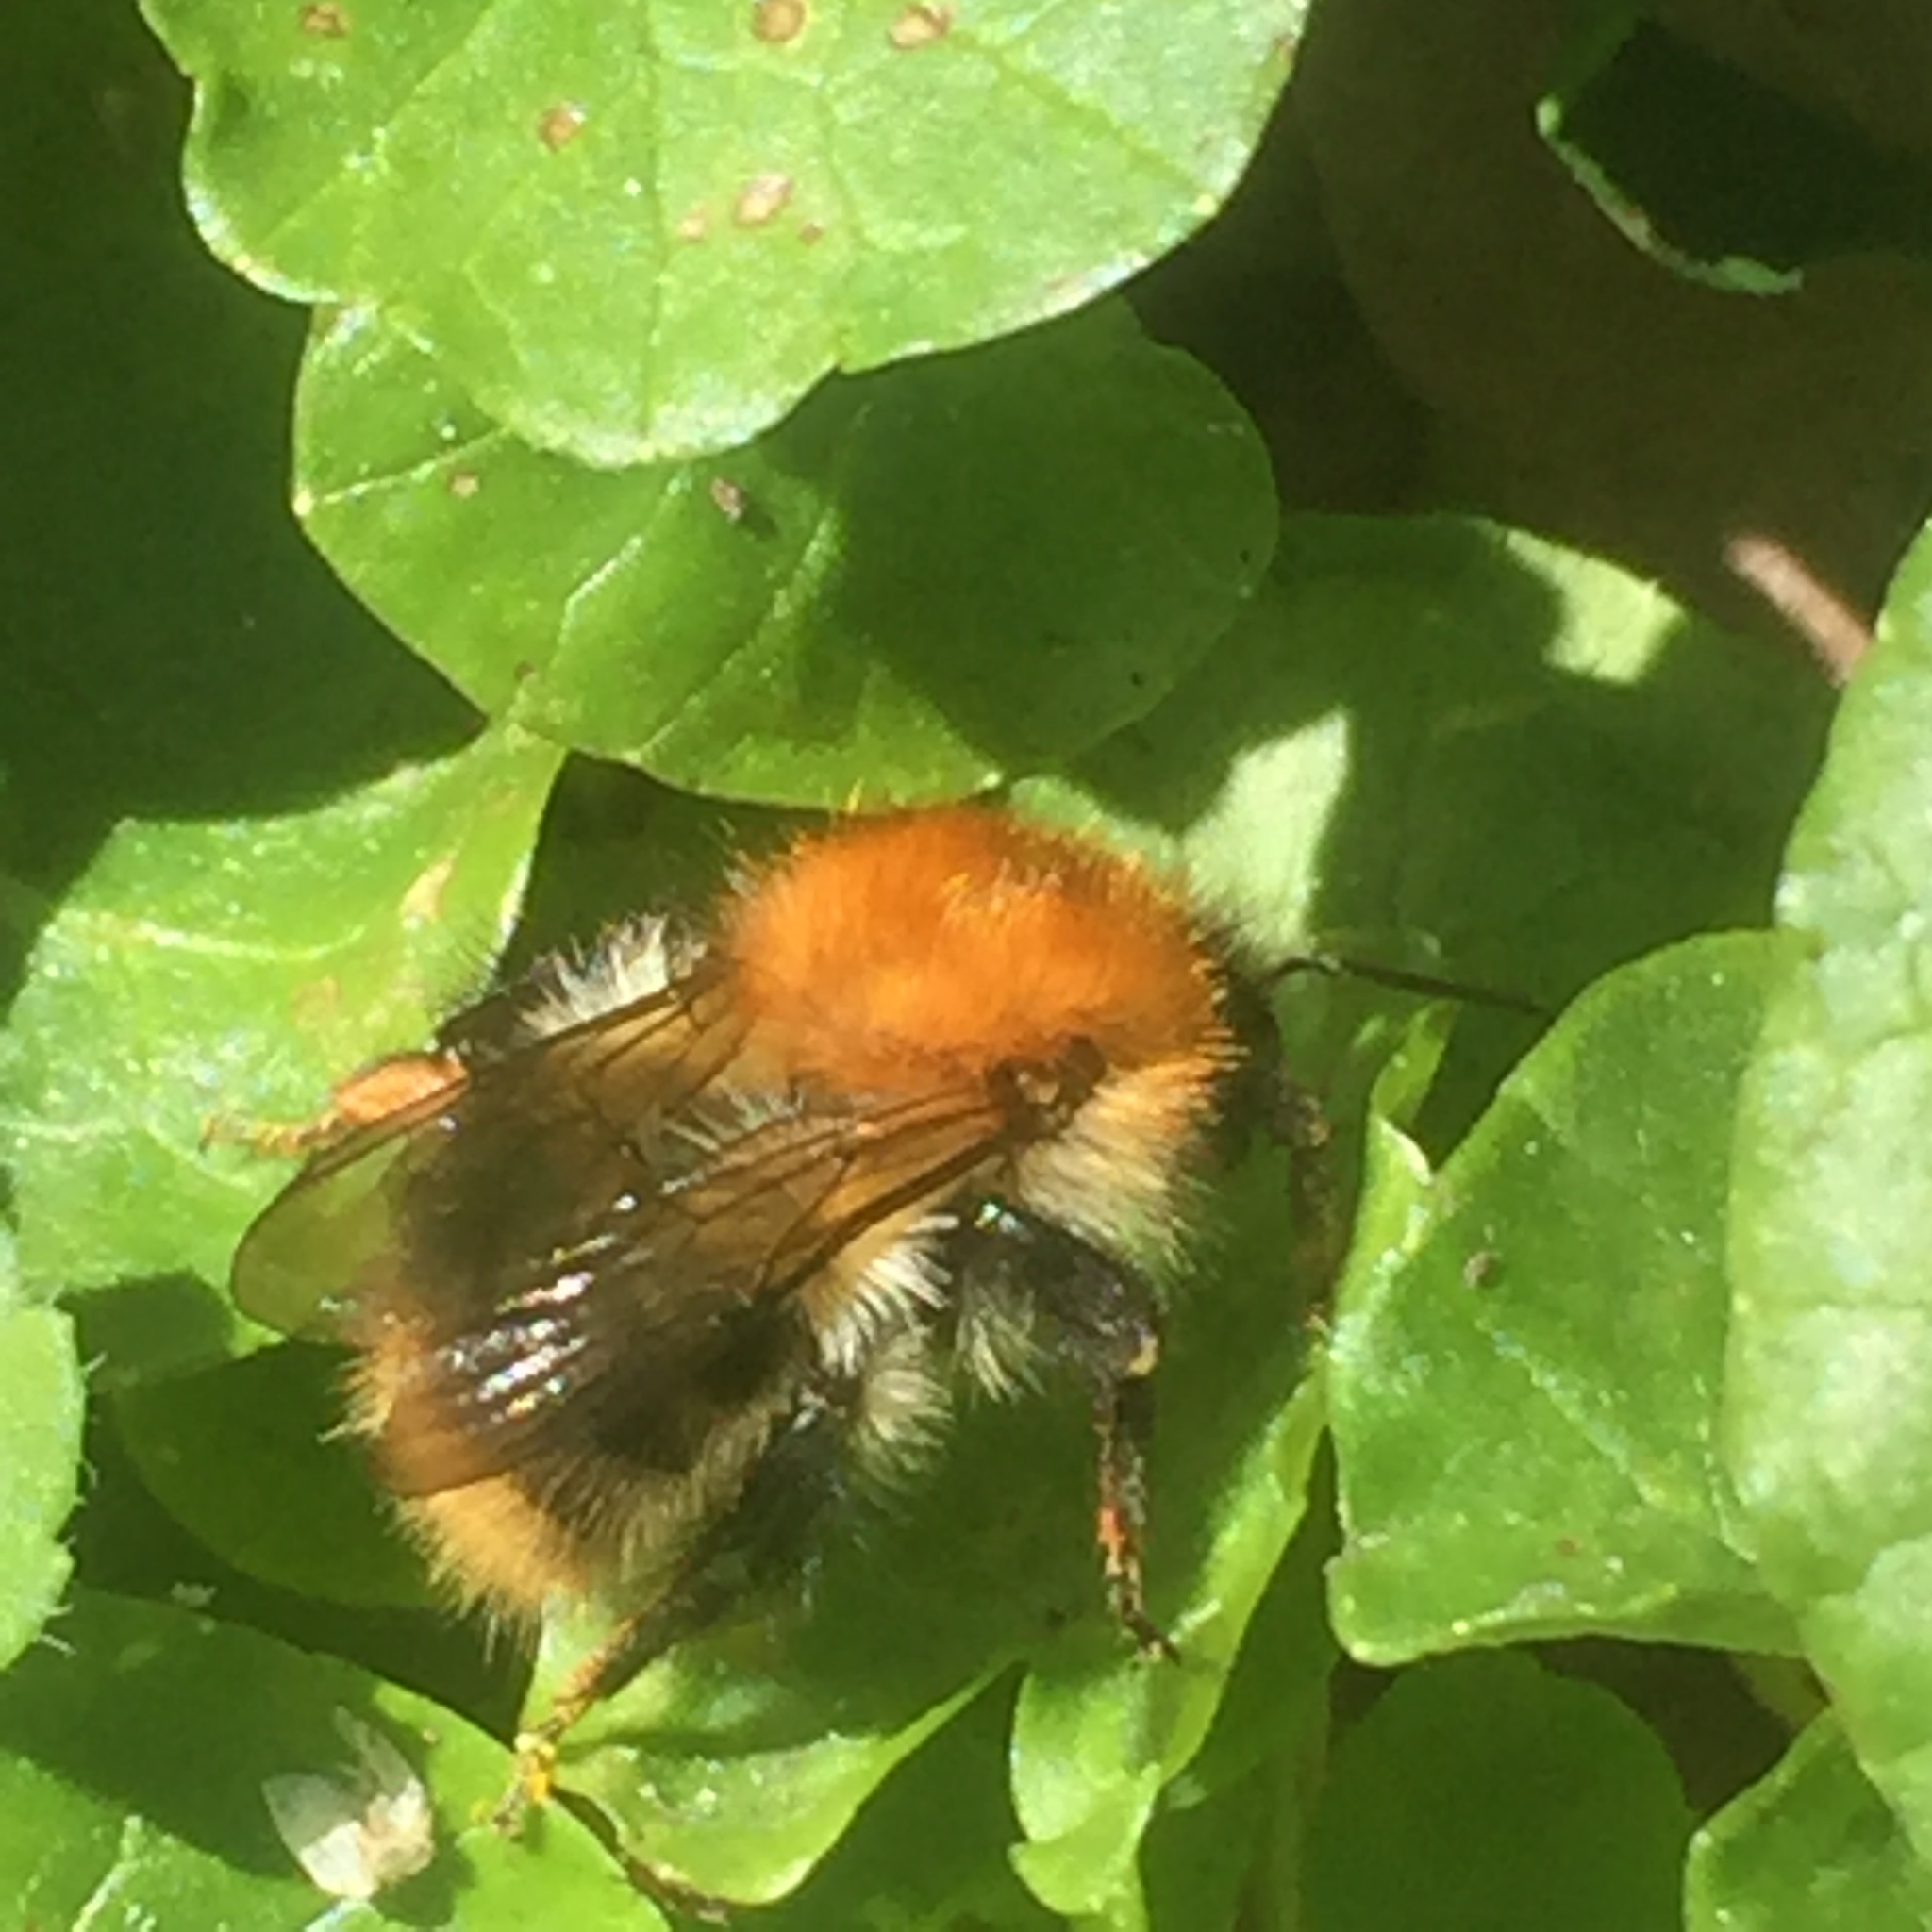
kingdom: Animalia
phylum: Arthropoda
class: Insecta
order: Hymenoptera
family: Apidae
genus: Bombus
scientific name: Bombus pascuorum
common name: Common carder bee
